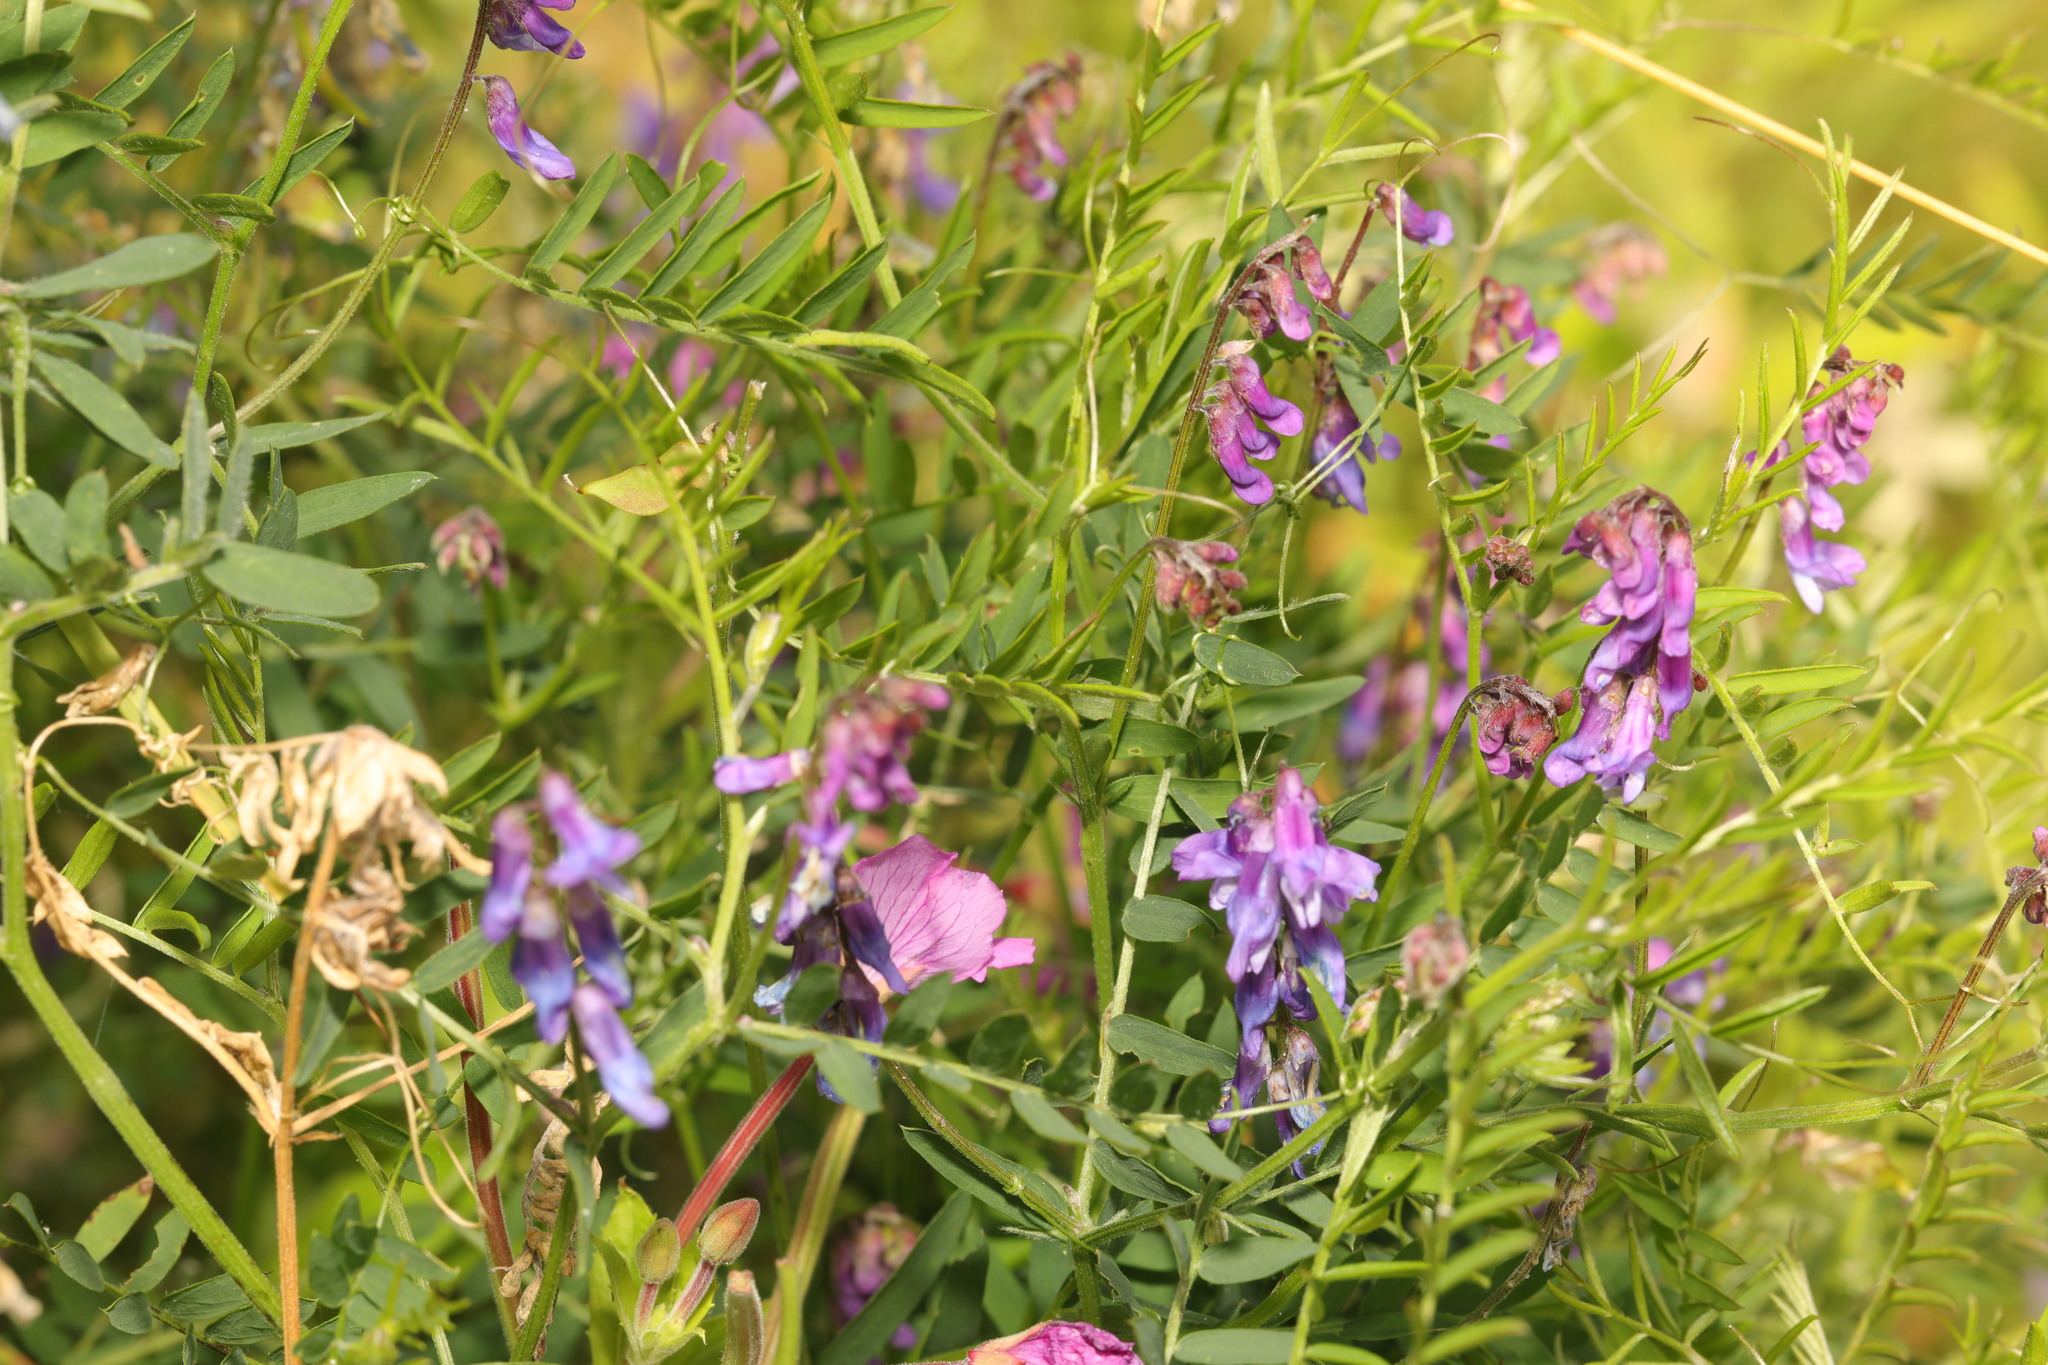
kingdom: Plantae
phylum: Tracheophyta
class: Magnoliopsida
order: Fabales
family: Fabaceae
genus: Vicia
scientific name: Vicia cracca
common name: Bird vetch
